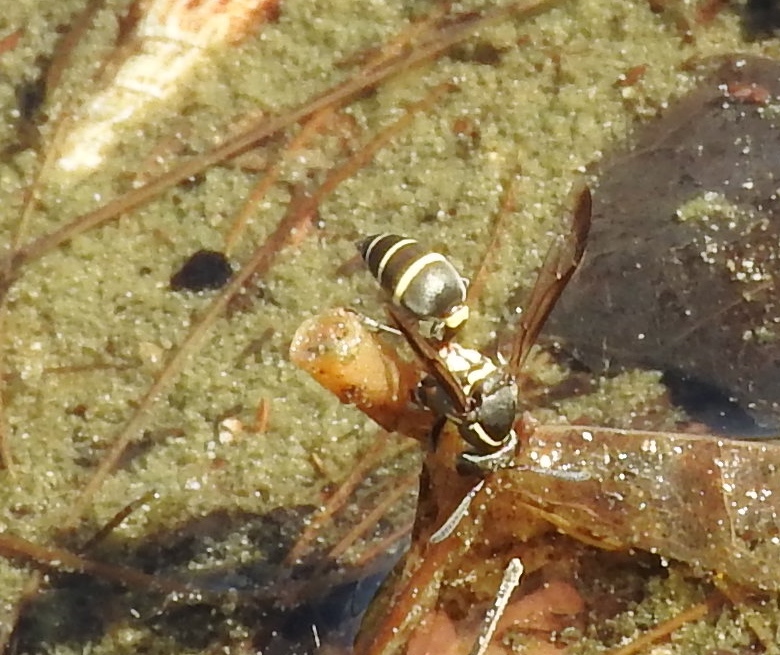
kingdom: Animalia
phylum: Arthropoda
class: Insecta
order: Hymenoptera
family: Vespidae
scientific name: Vespidae
